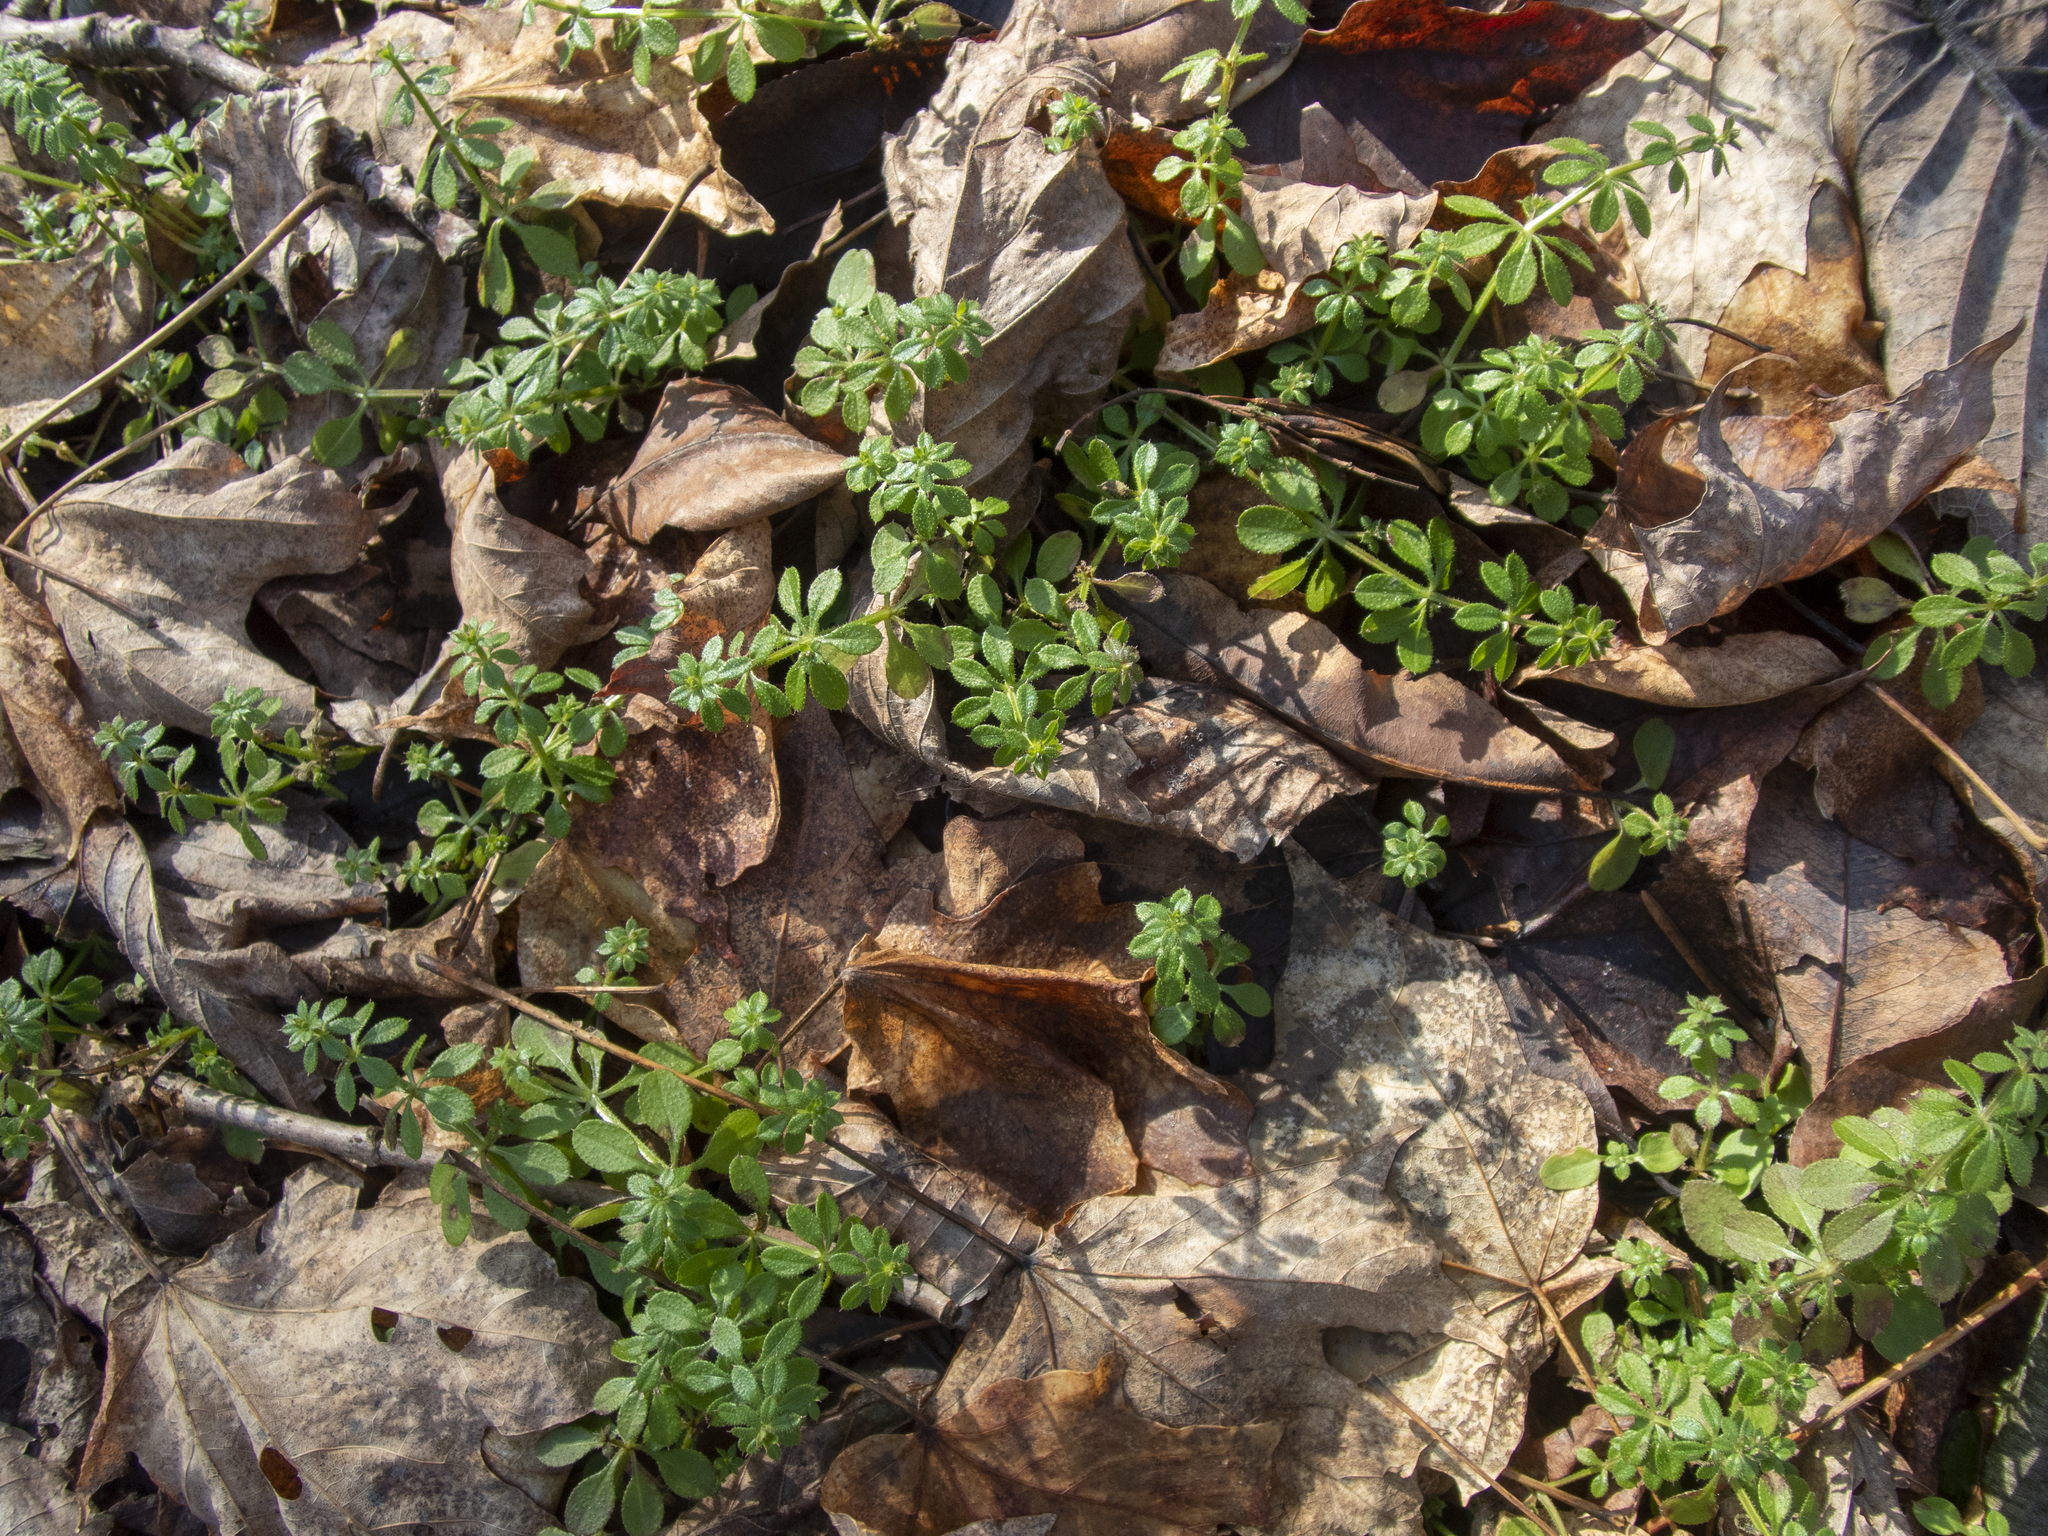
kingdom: Plantae
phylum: Tracheophyta
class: Magnoliopsida
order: Gentianales
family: Rubiaceae
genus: Galium
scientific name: Galium aparine
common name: Cleavers
